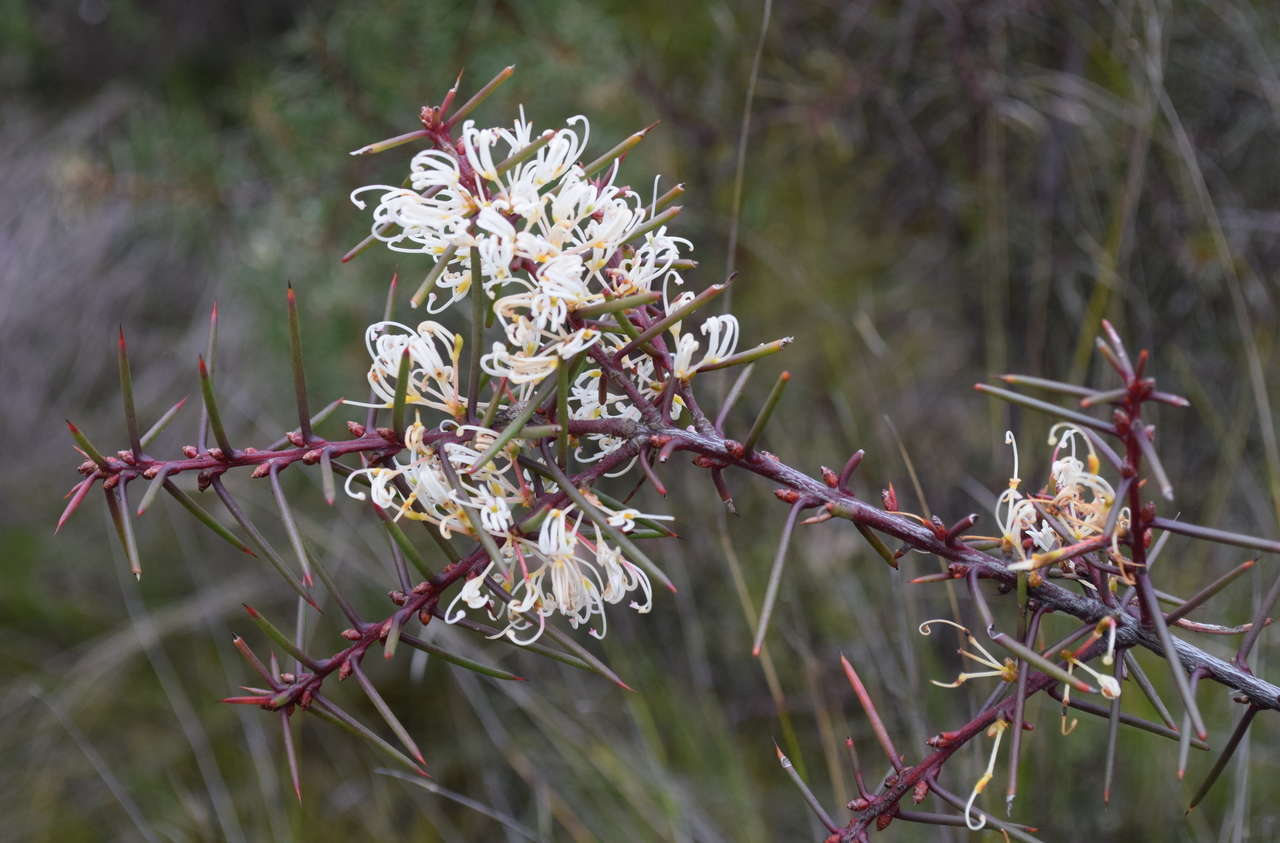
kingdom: Plantae
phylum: Tracheophyta
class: Magnoliopsida
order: Proteales
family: Proteaceae
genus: Hakea
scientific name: Hakea decurrens
